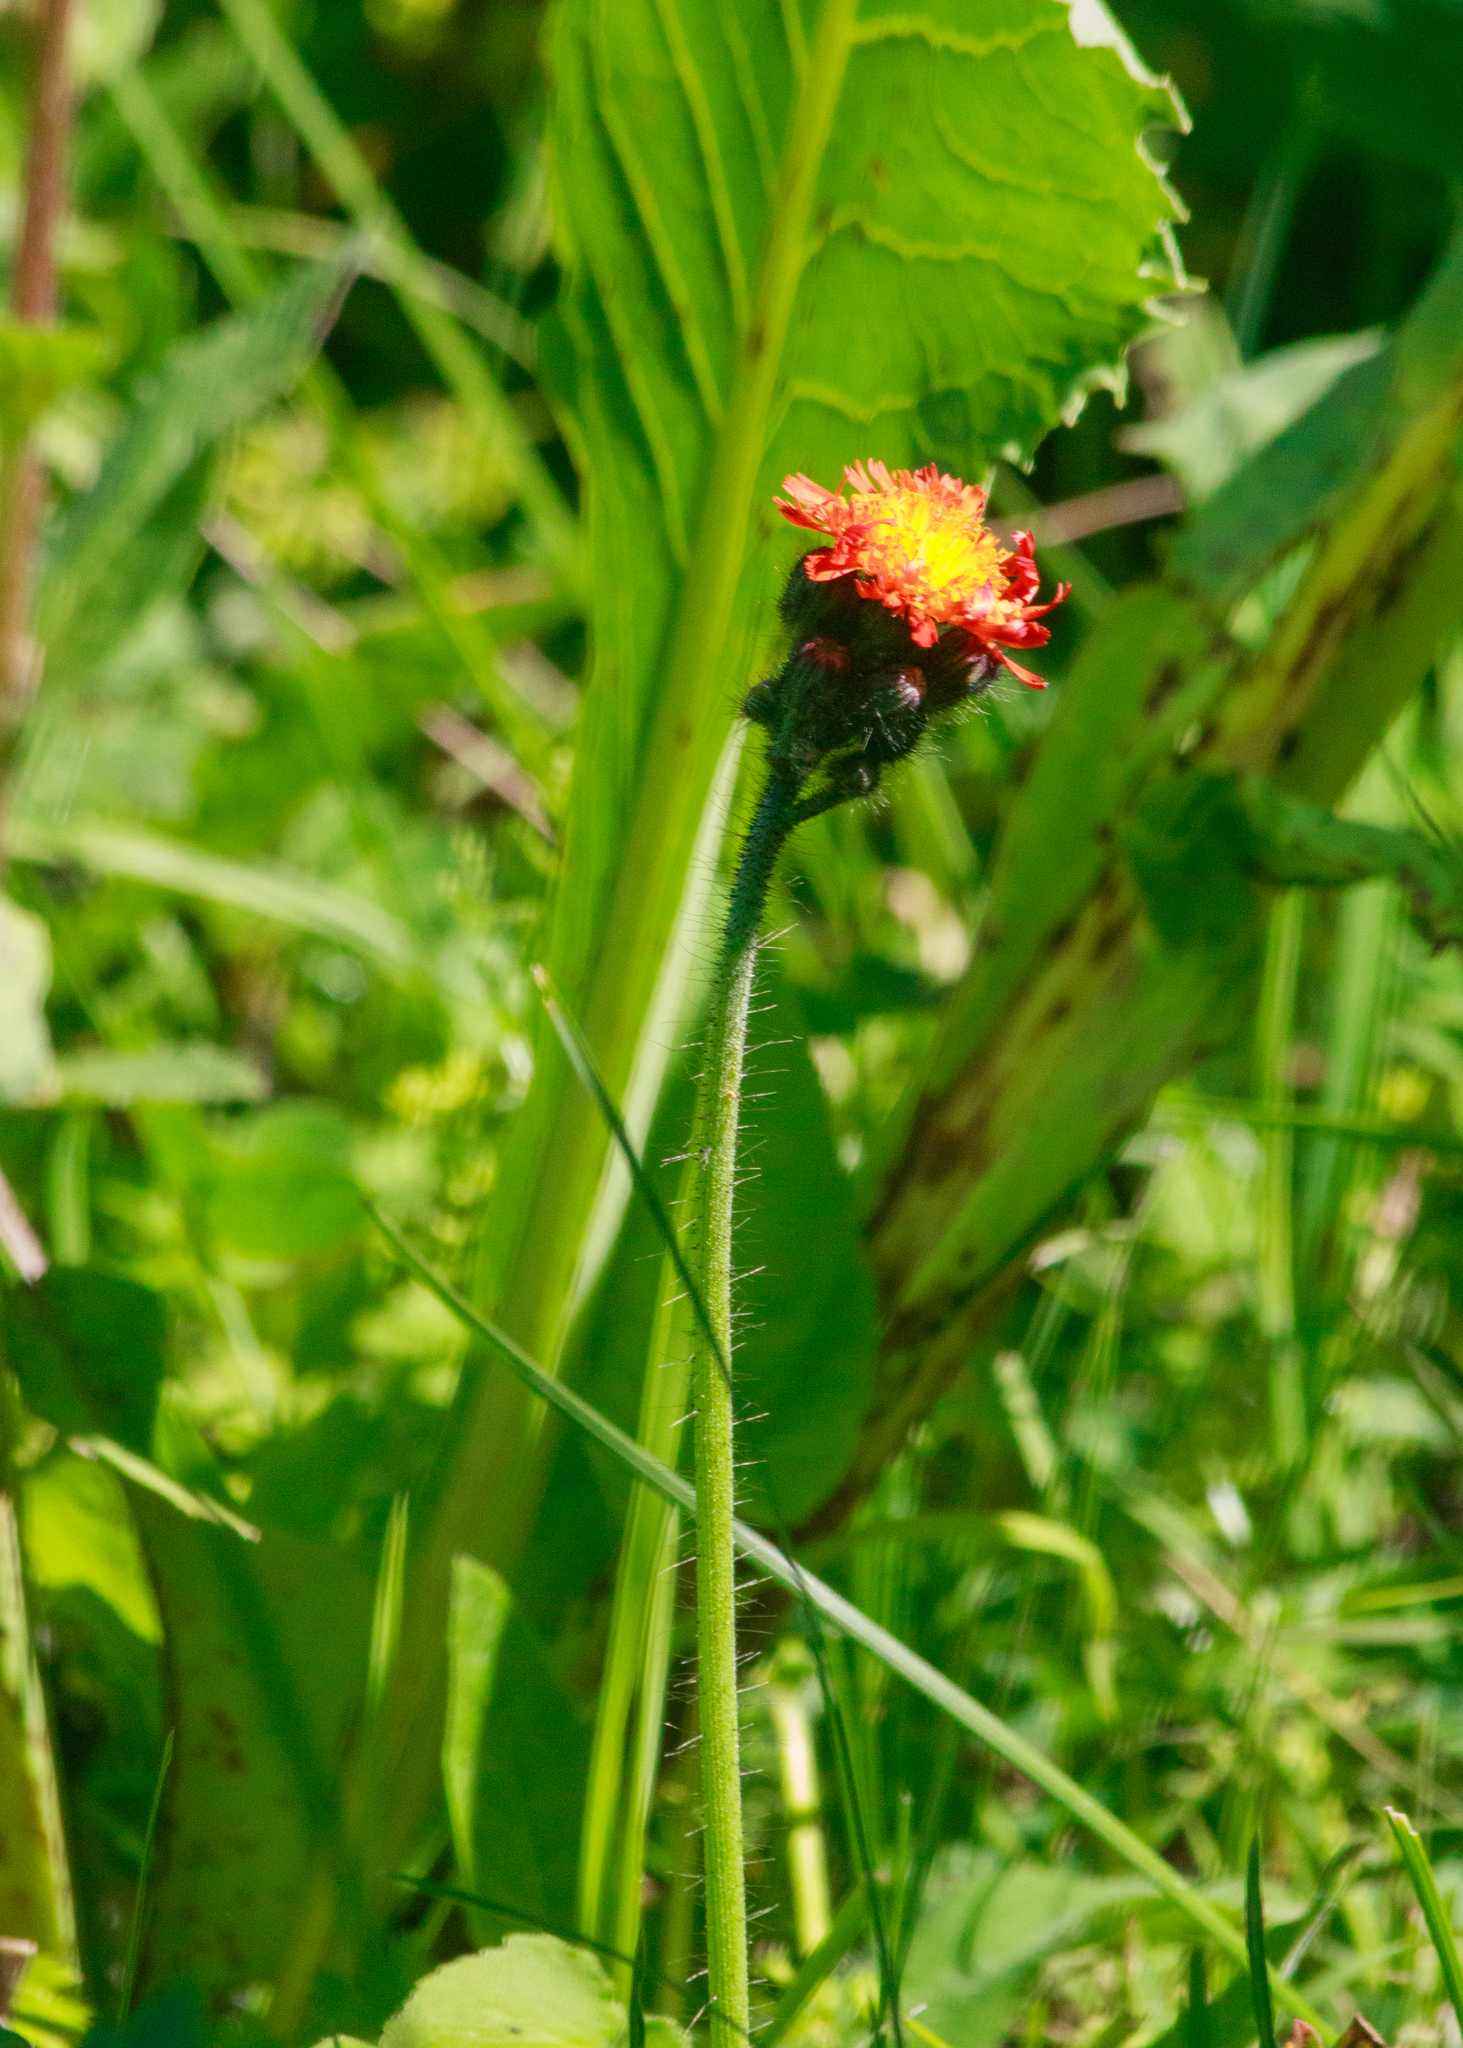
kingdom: Plantae
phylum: Tracheophyta
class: Magnoliopsida
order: Asterales
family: Asteraceae
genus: Pilosella
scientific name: Pilosella aurantiaca
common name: Fox-and-cubs
